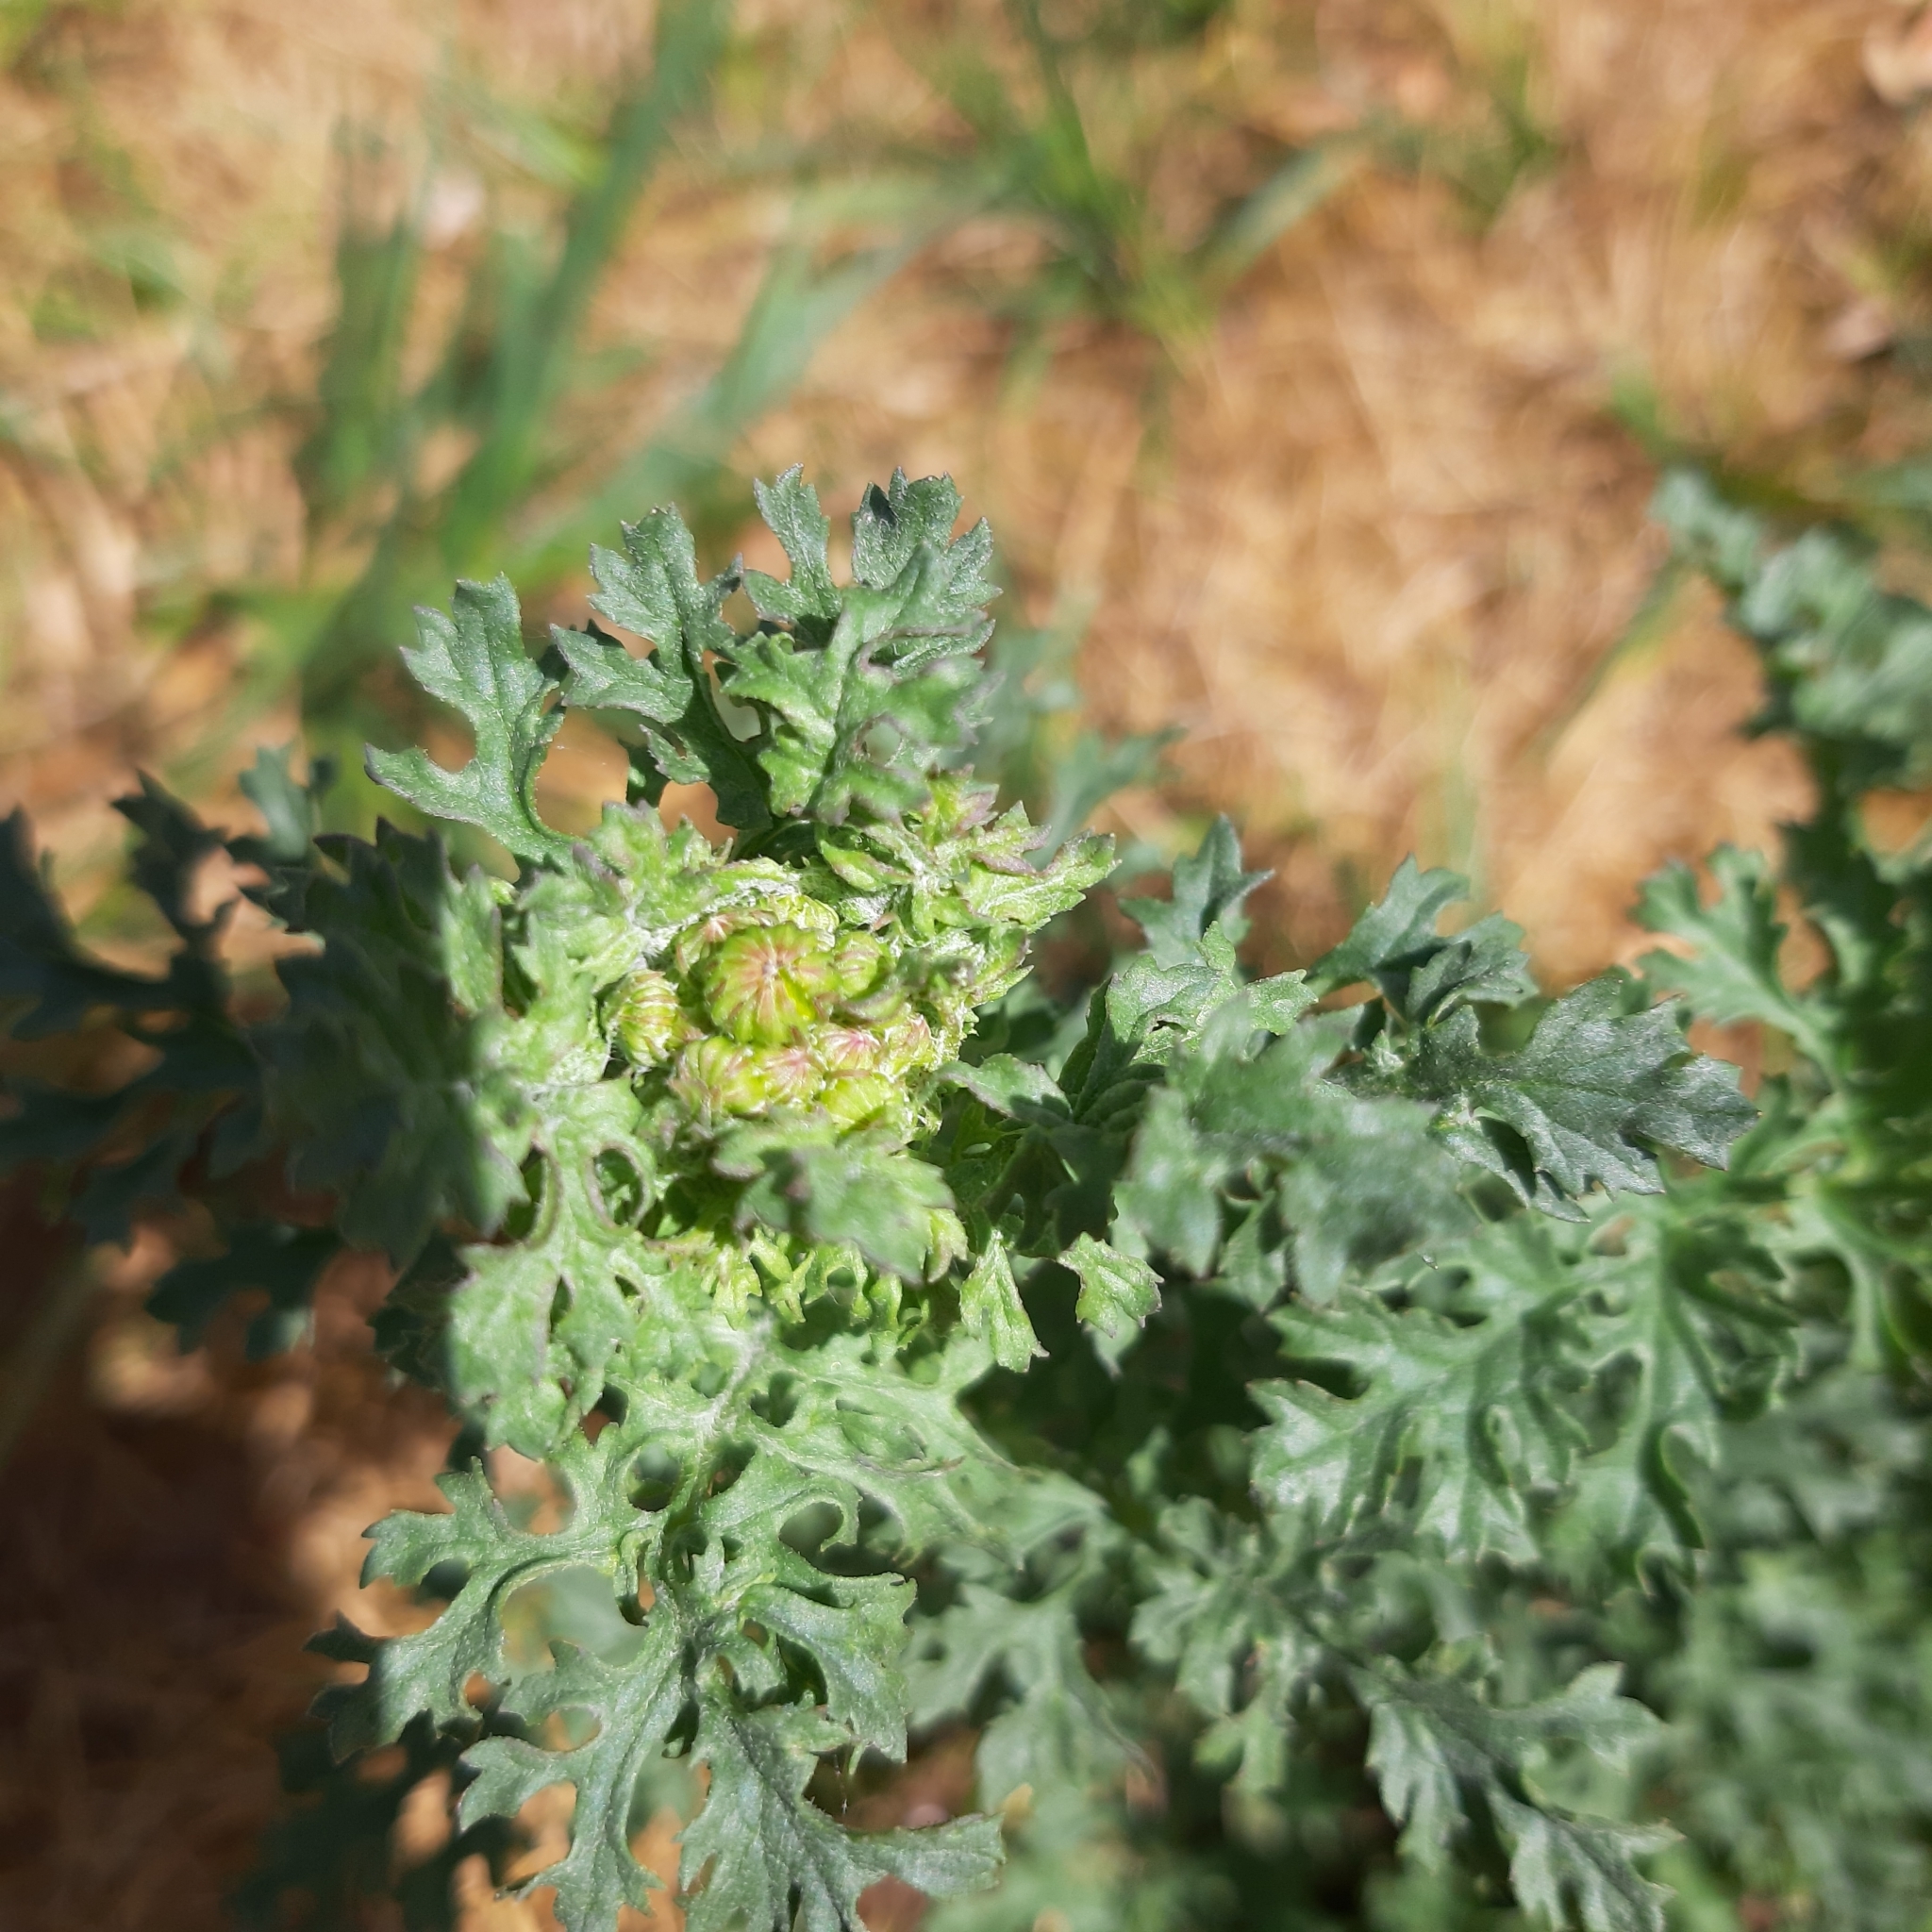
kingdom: Plantae
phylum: Tracheophyta
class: Magnoliopsida
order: Asterales
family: Asteraceae
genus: Jacobaea
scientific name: Jacobaea vulgaris
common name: Stinking willie
